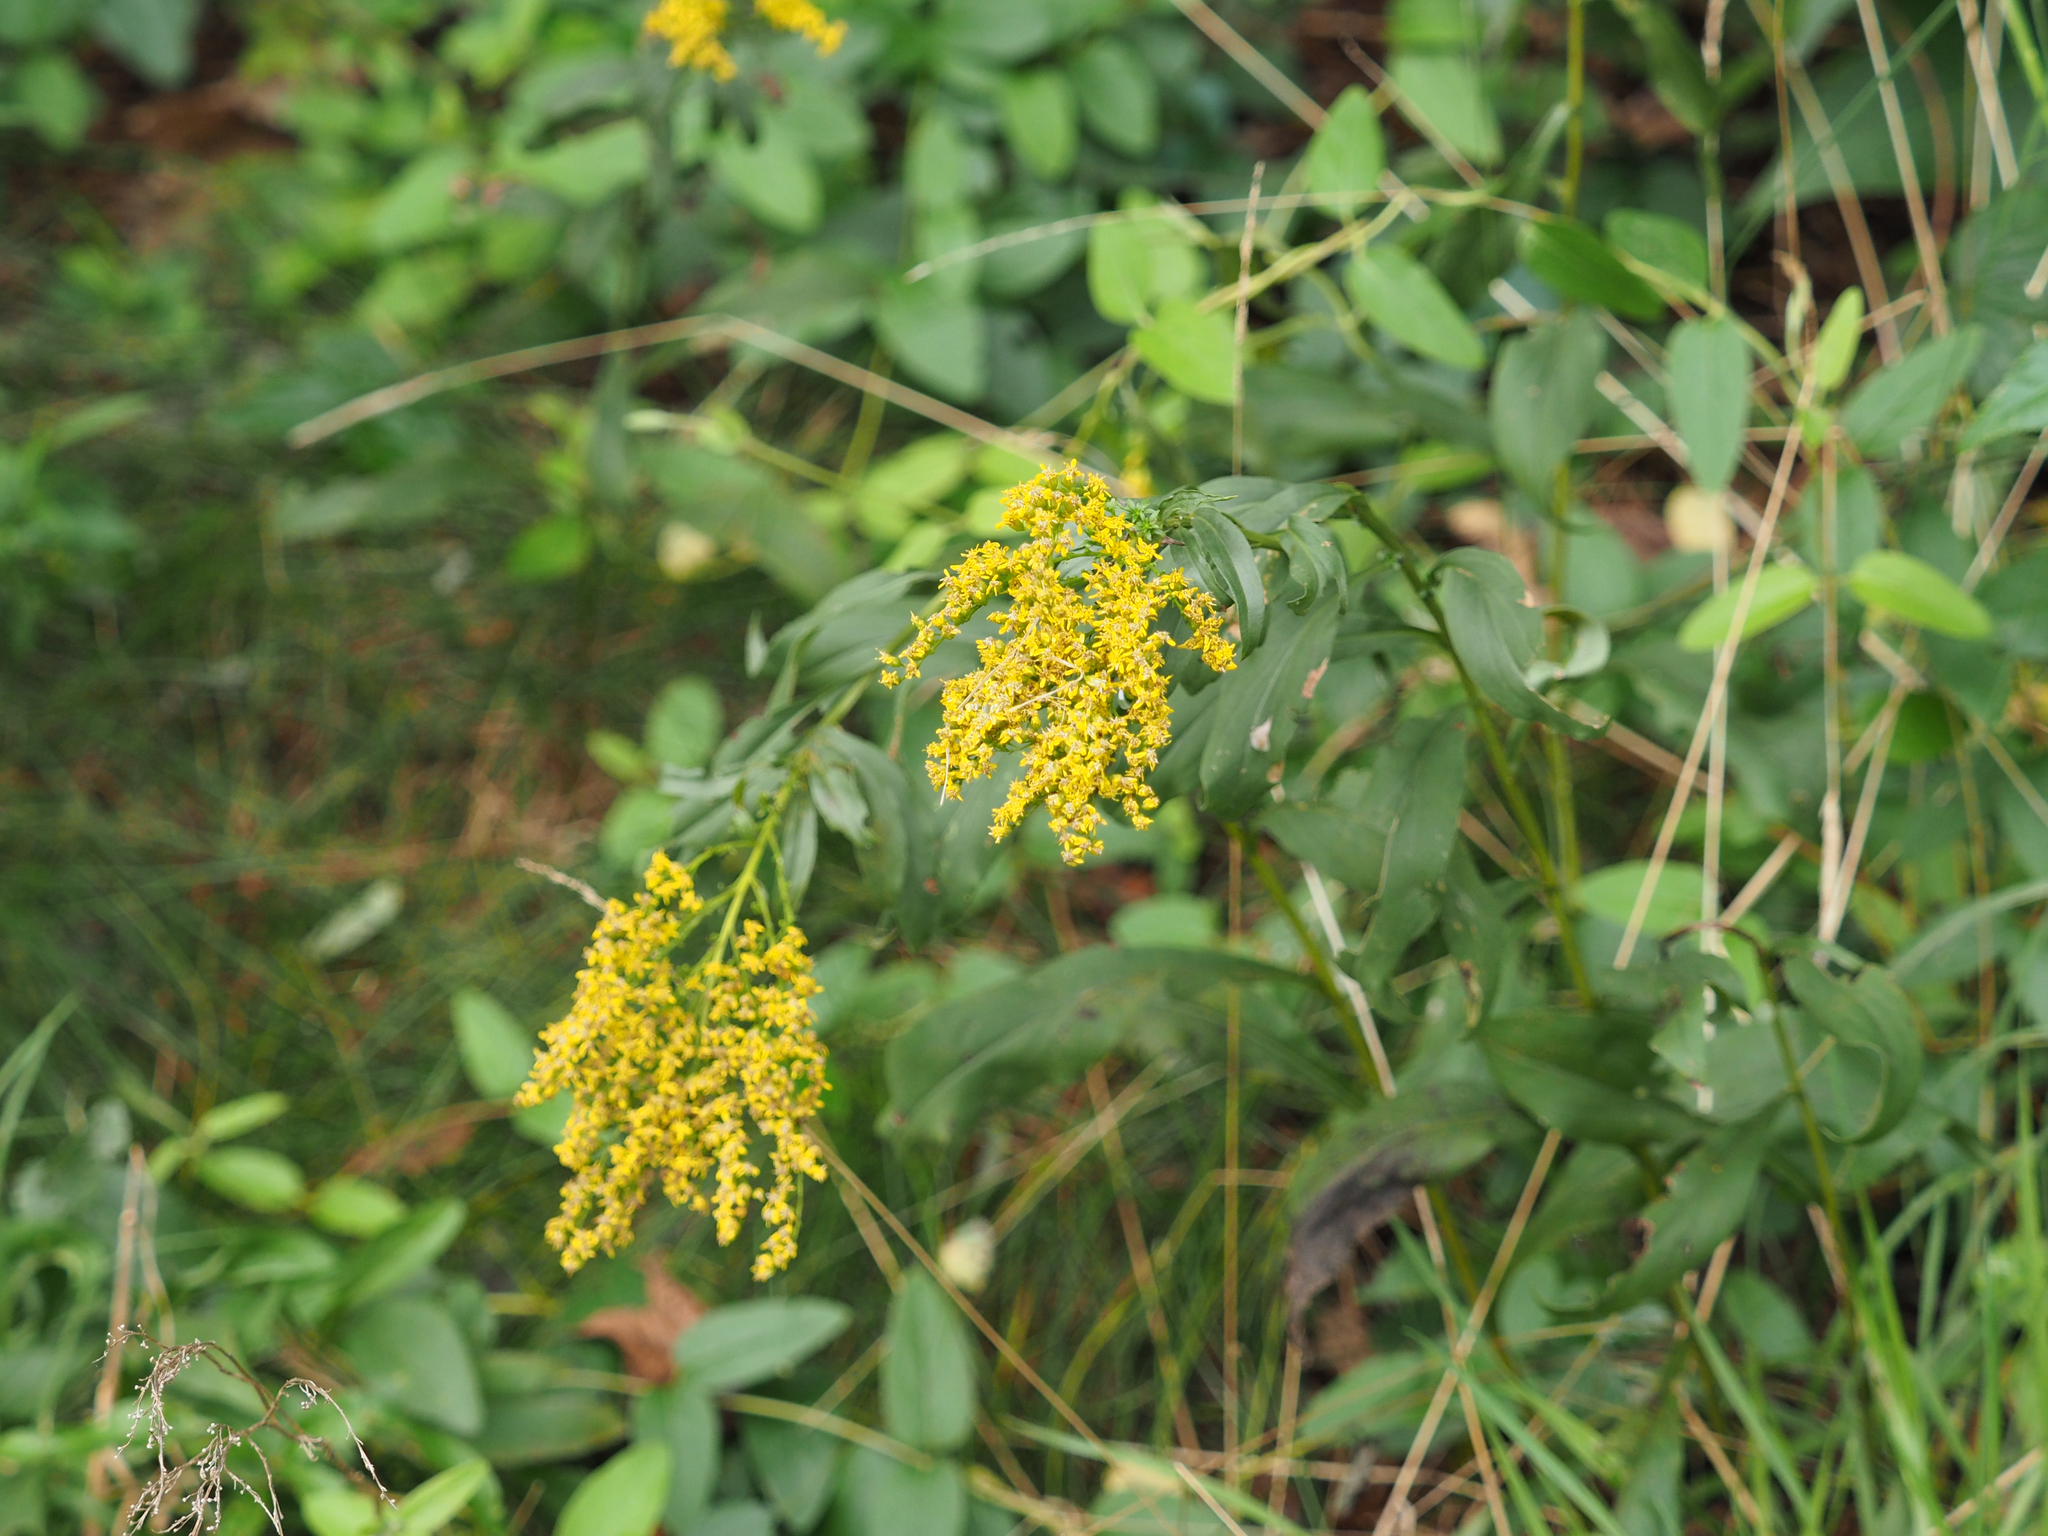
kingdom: Plantae
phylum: Tracheophyta
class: Magnoliopsida
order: Asterales
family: Asteraceae
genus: Solidago
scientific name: Solidago juncea
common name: Early goldenrod
